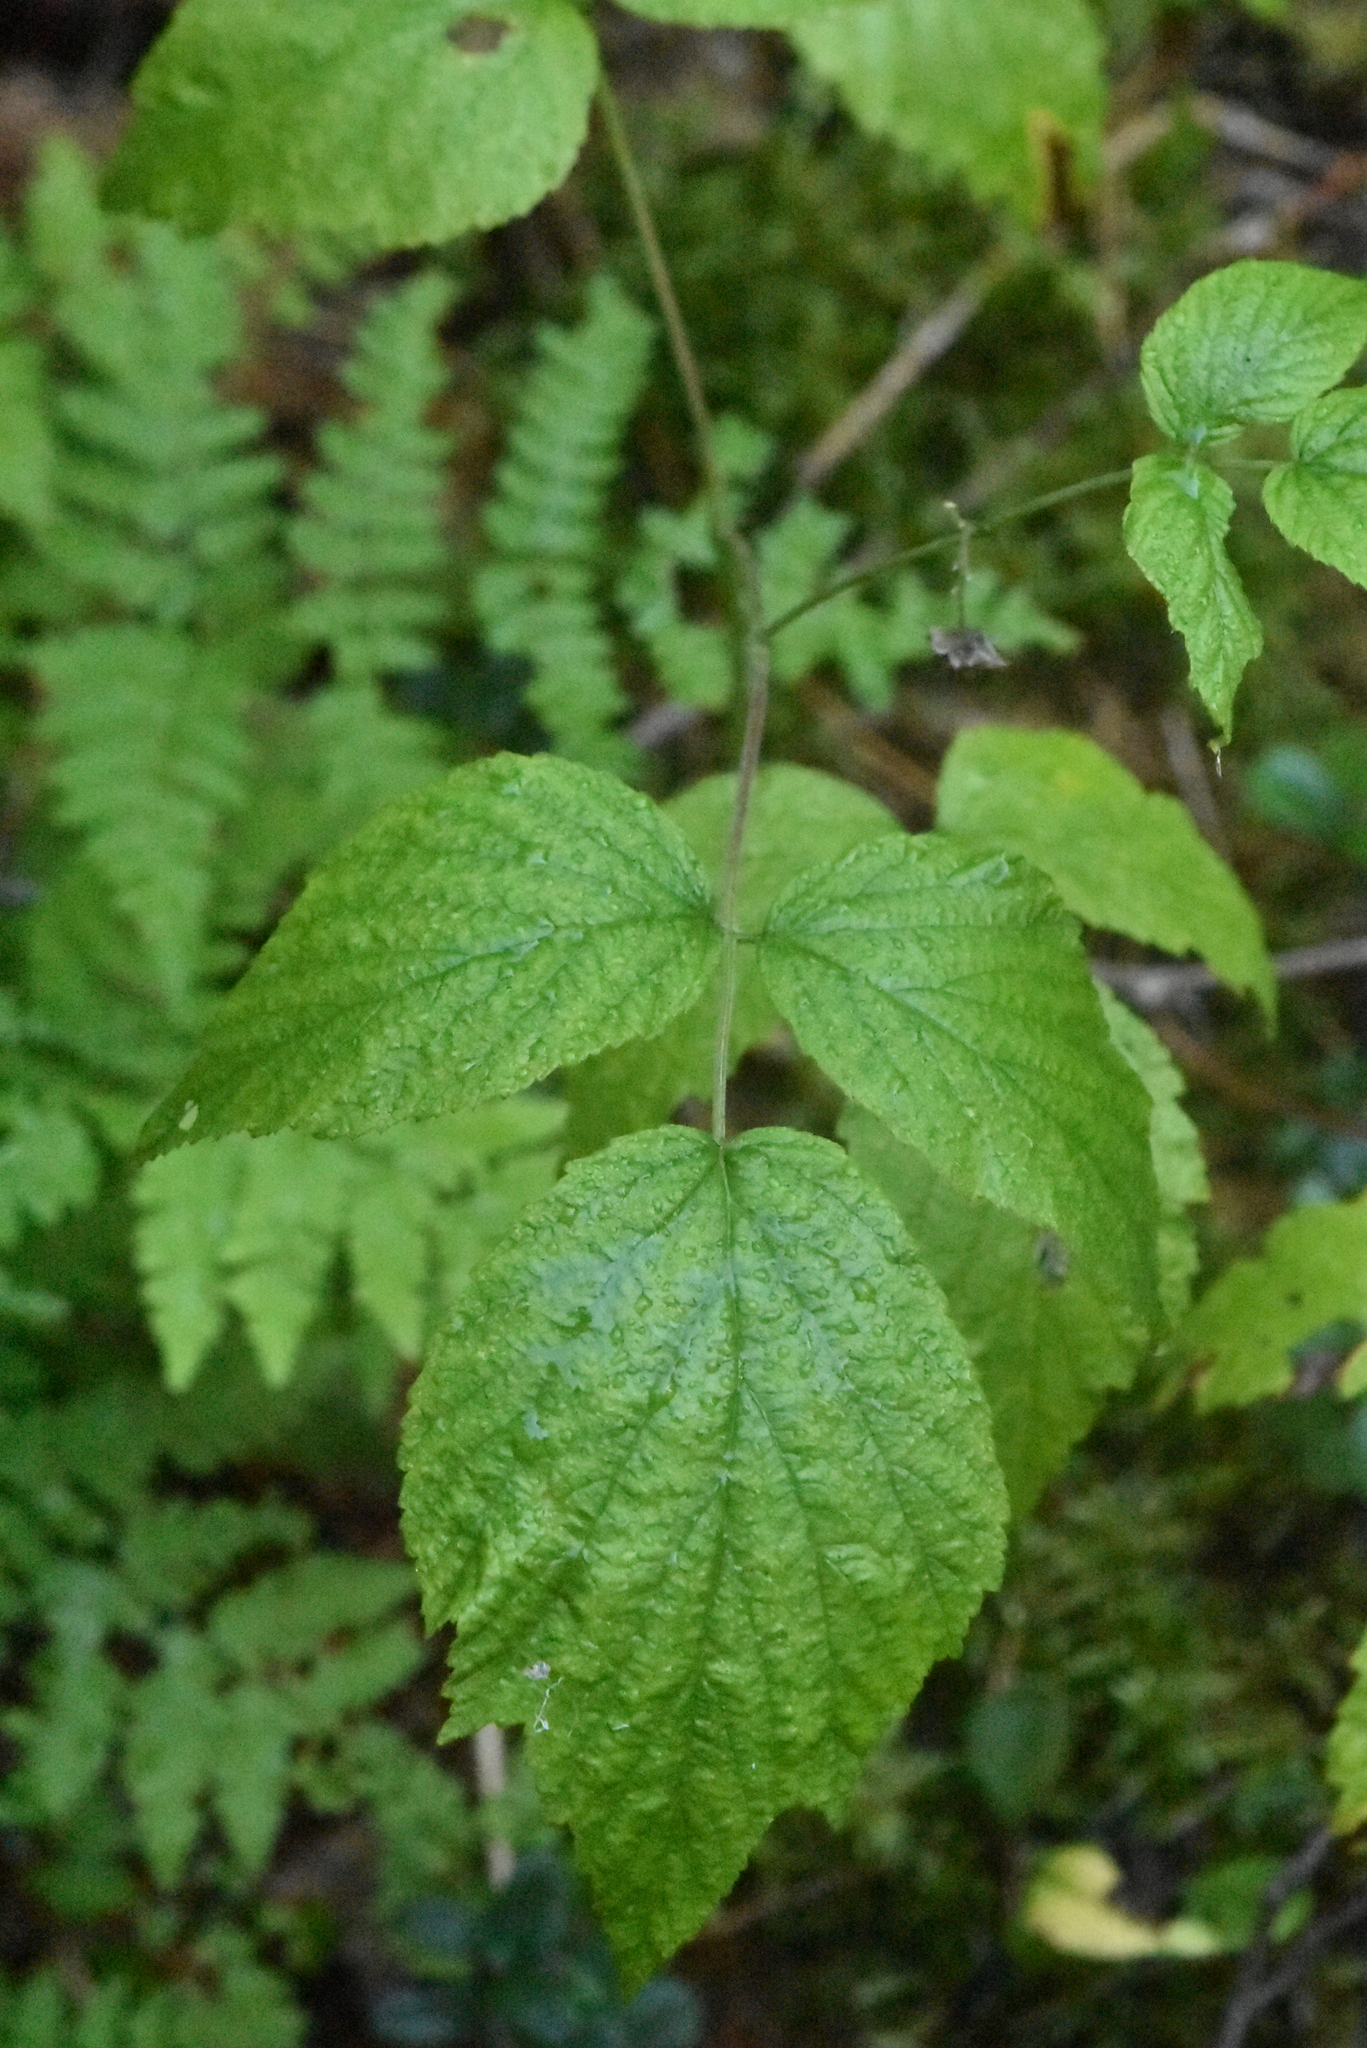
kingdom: Plantae
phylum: Tracheophyta
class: Magnoliopsida
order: Rosales
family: Rosaceae
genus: Rubus
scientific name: Rubus idaeus
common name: Raspberry
